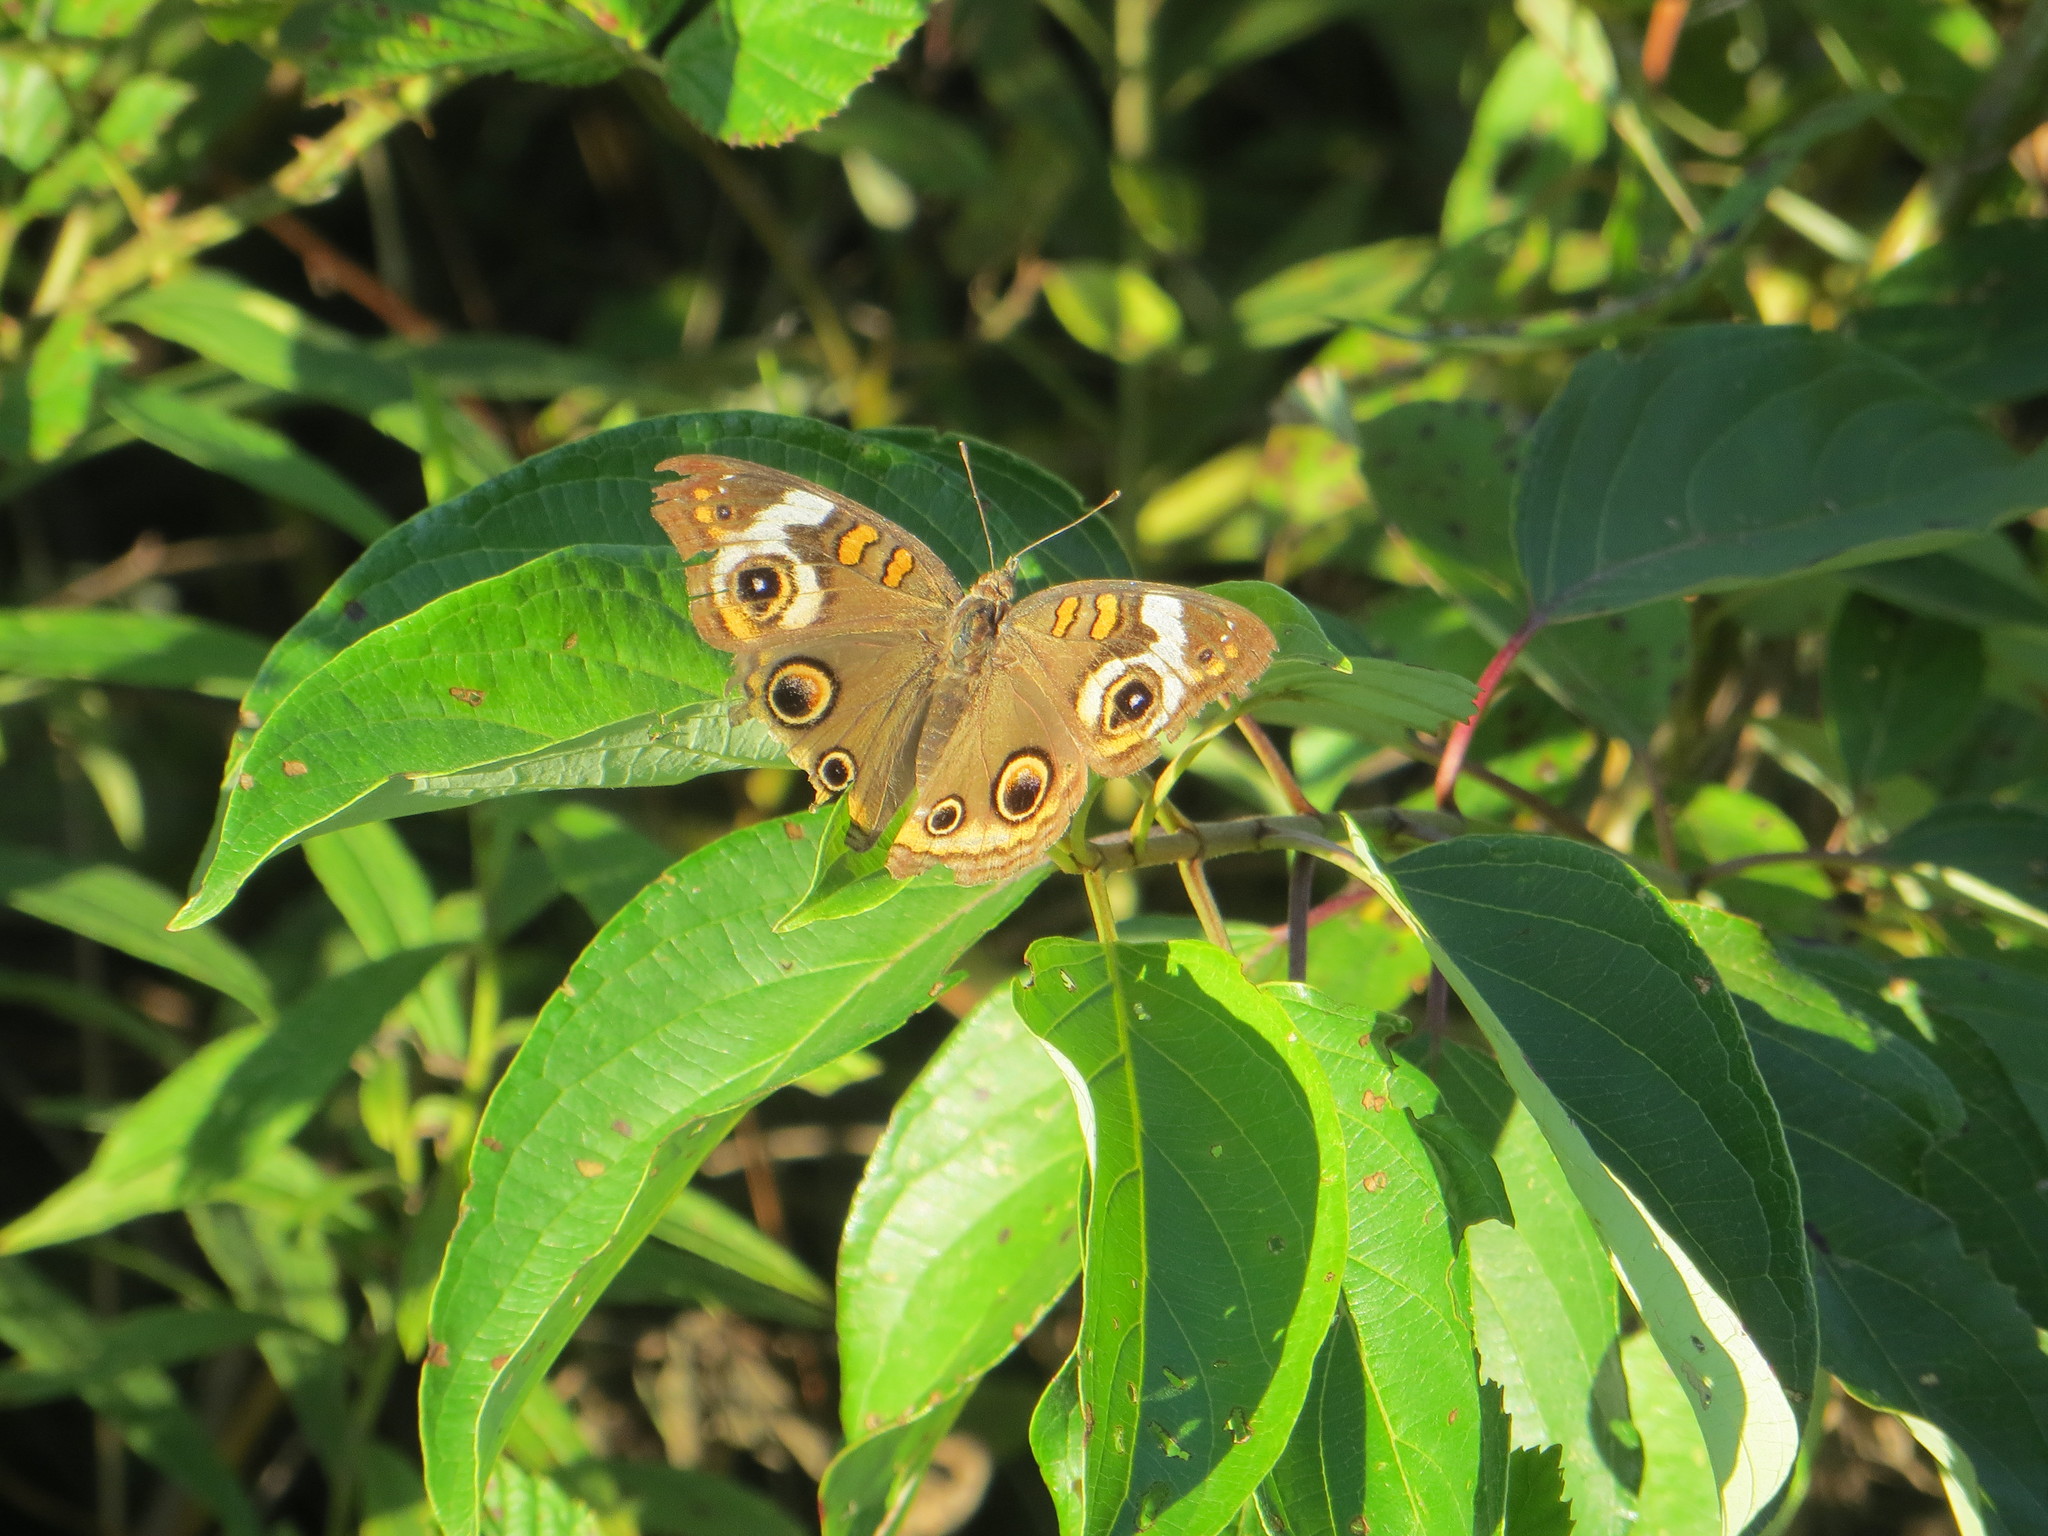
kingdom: Animalia
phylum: Arthropoda
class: Insecta
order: Lepidoptera
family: Nymphalidae
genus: Junonia
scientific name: Junonia coenia
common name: Common buckeye
